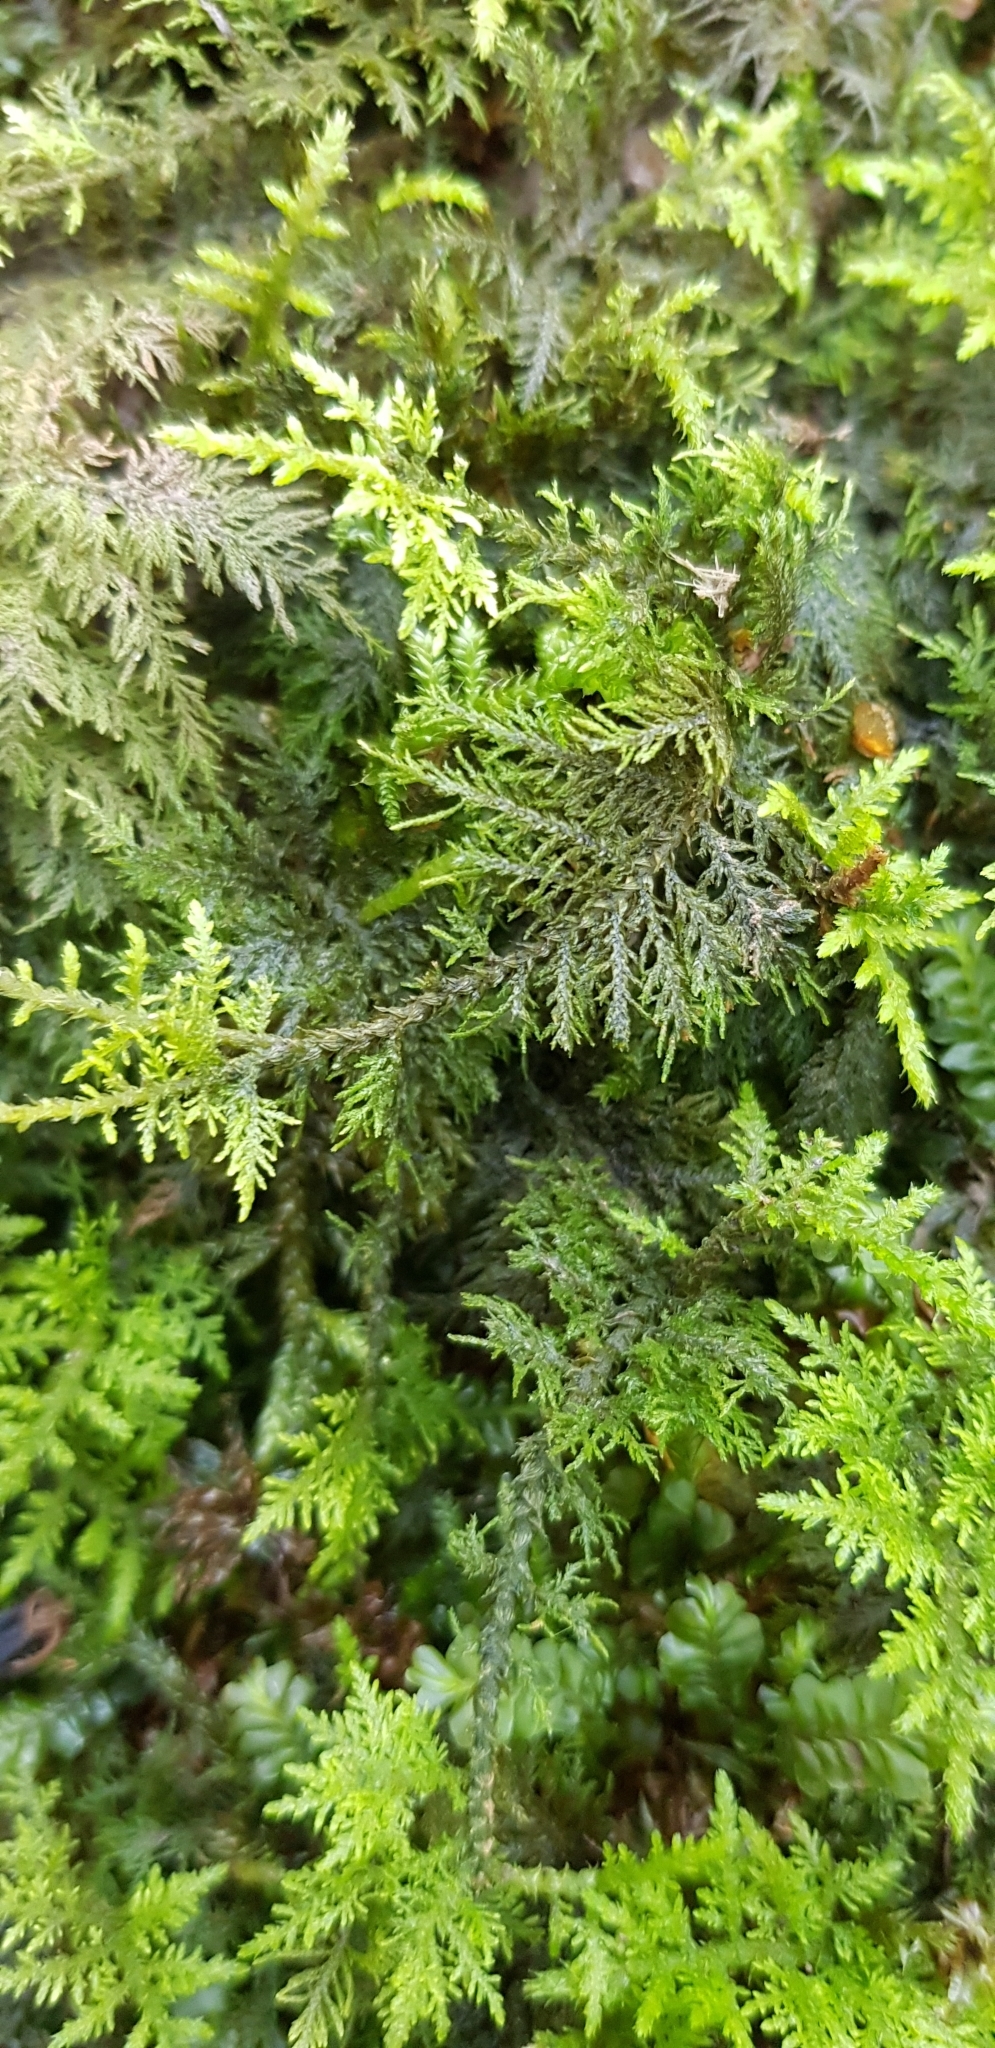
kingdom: Plantae
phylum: Bryophyta
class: Bryopsida
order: Hypnales
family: Thuidiaceae
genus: Thuidium
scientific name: Thuidium tamariscinum
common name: Common tamarisk-moss
